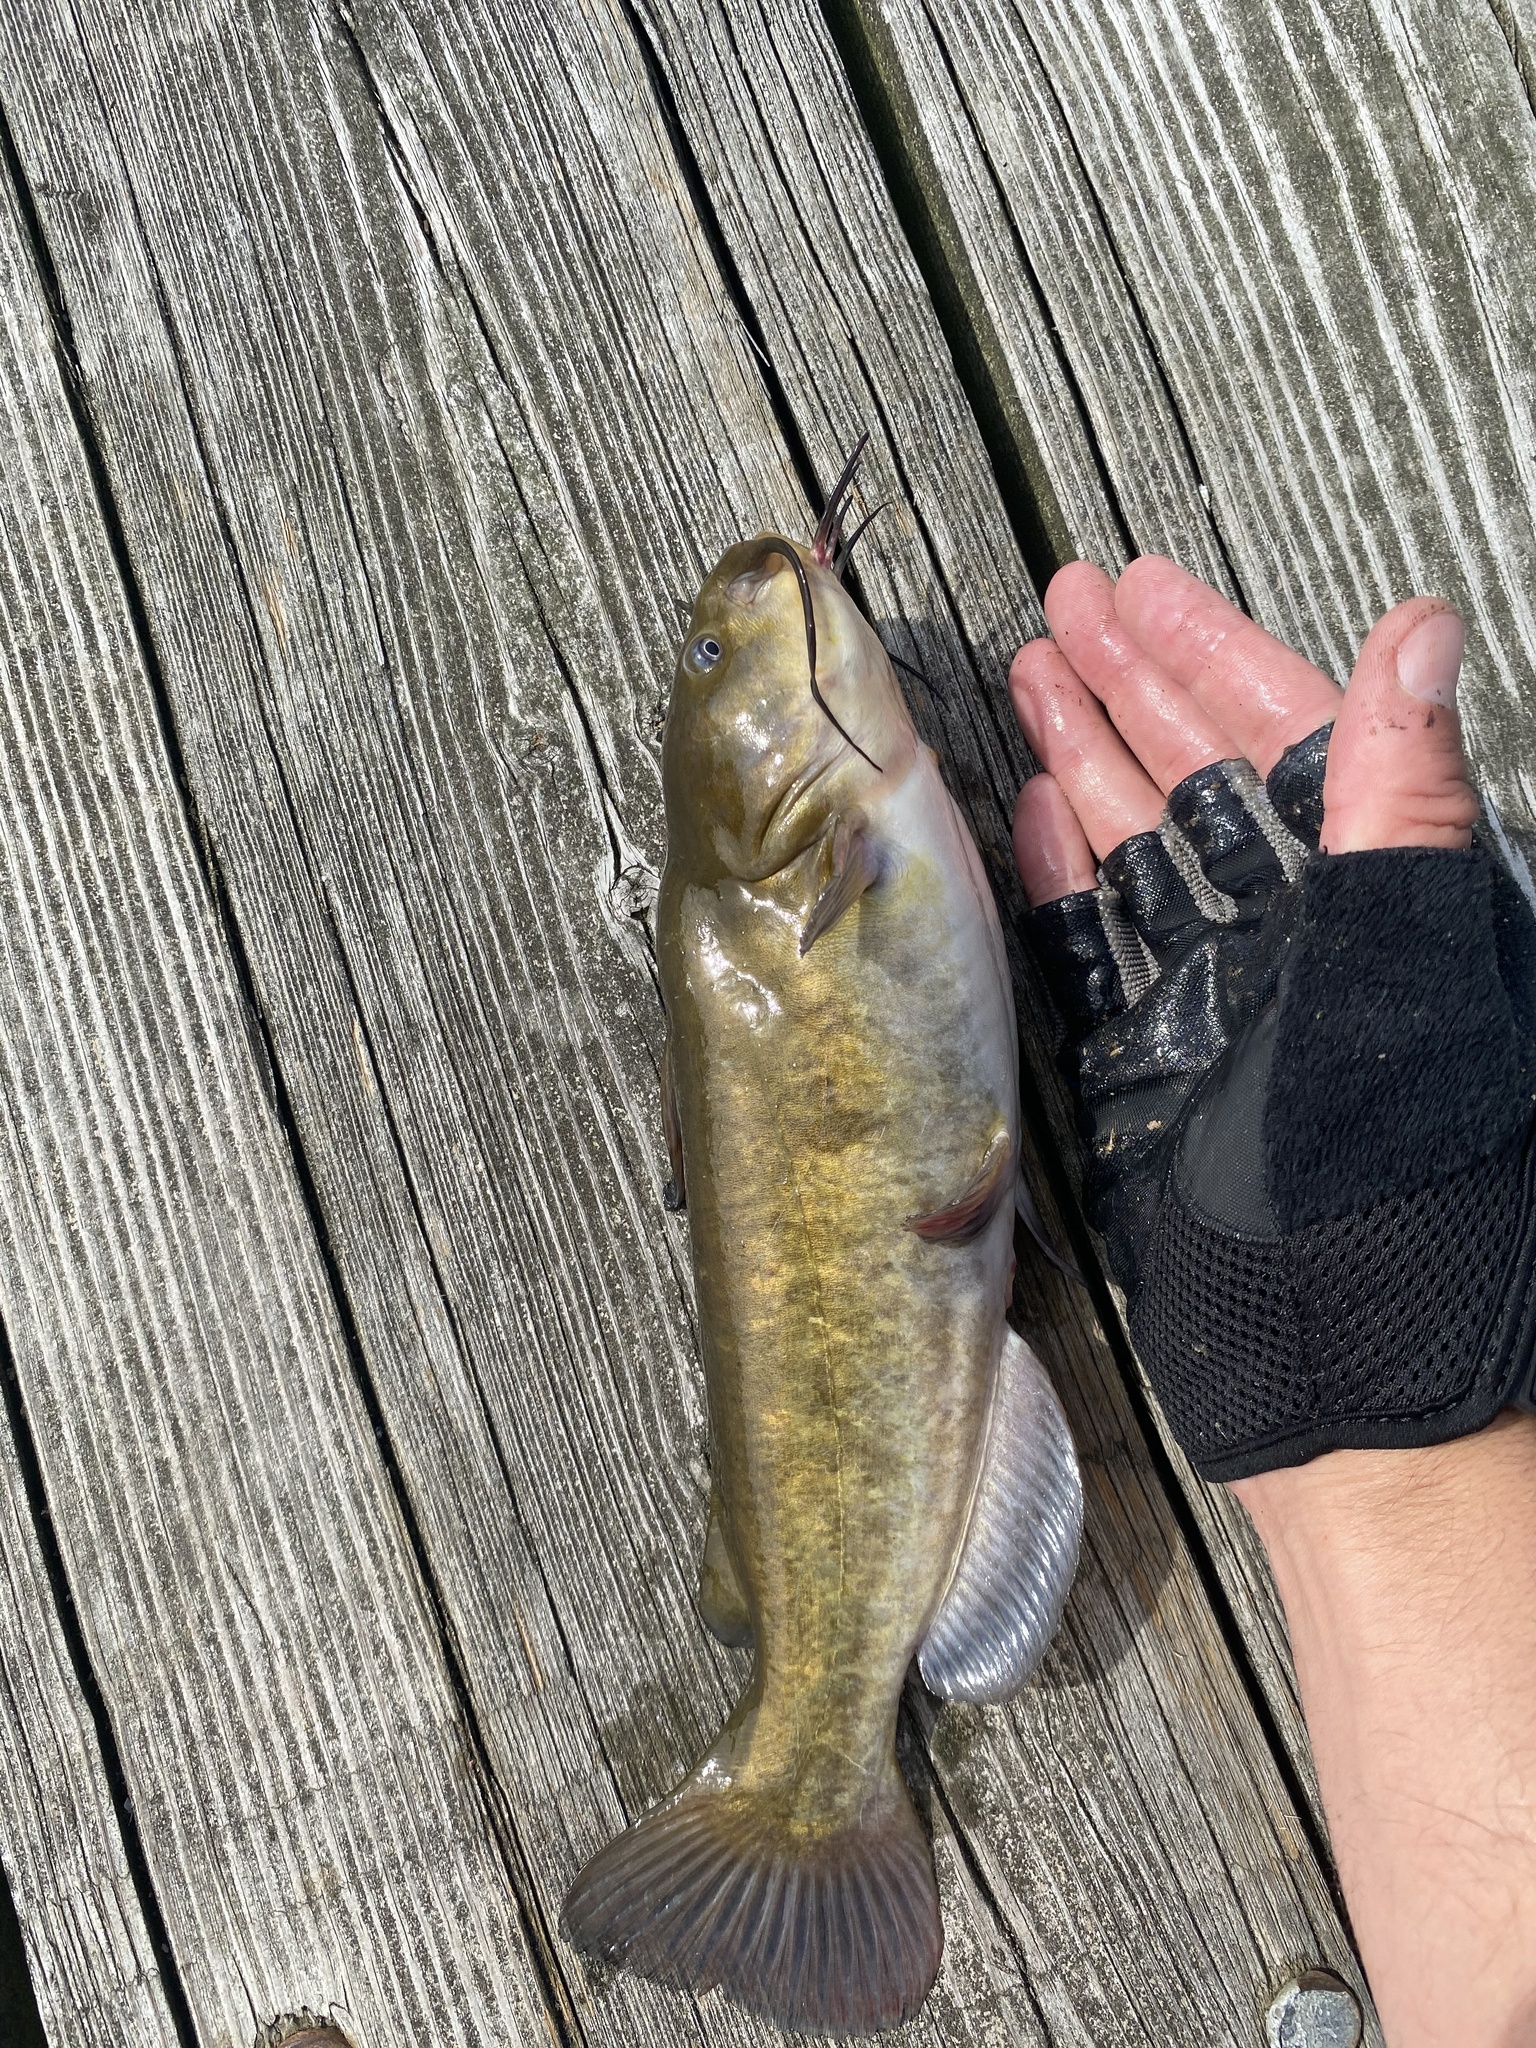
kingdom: Animalia
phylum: Chordata
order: Siluriformes
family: Ictaluridae
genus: Ameiurus
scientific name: Ameiurus nebulosus
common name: Brown bullhead
